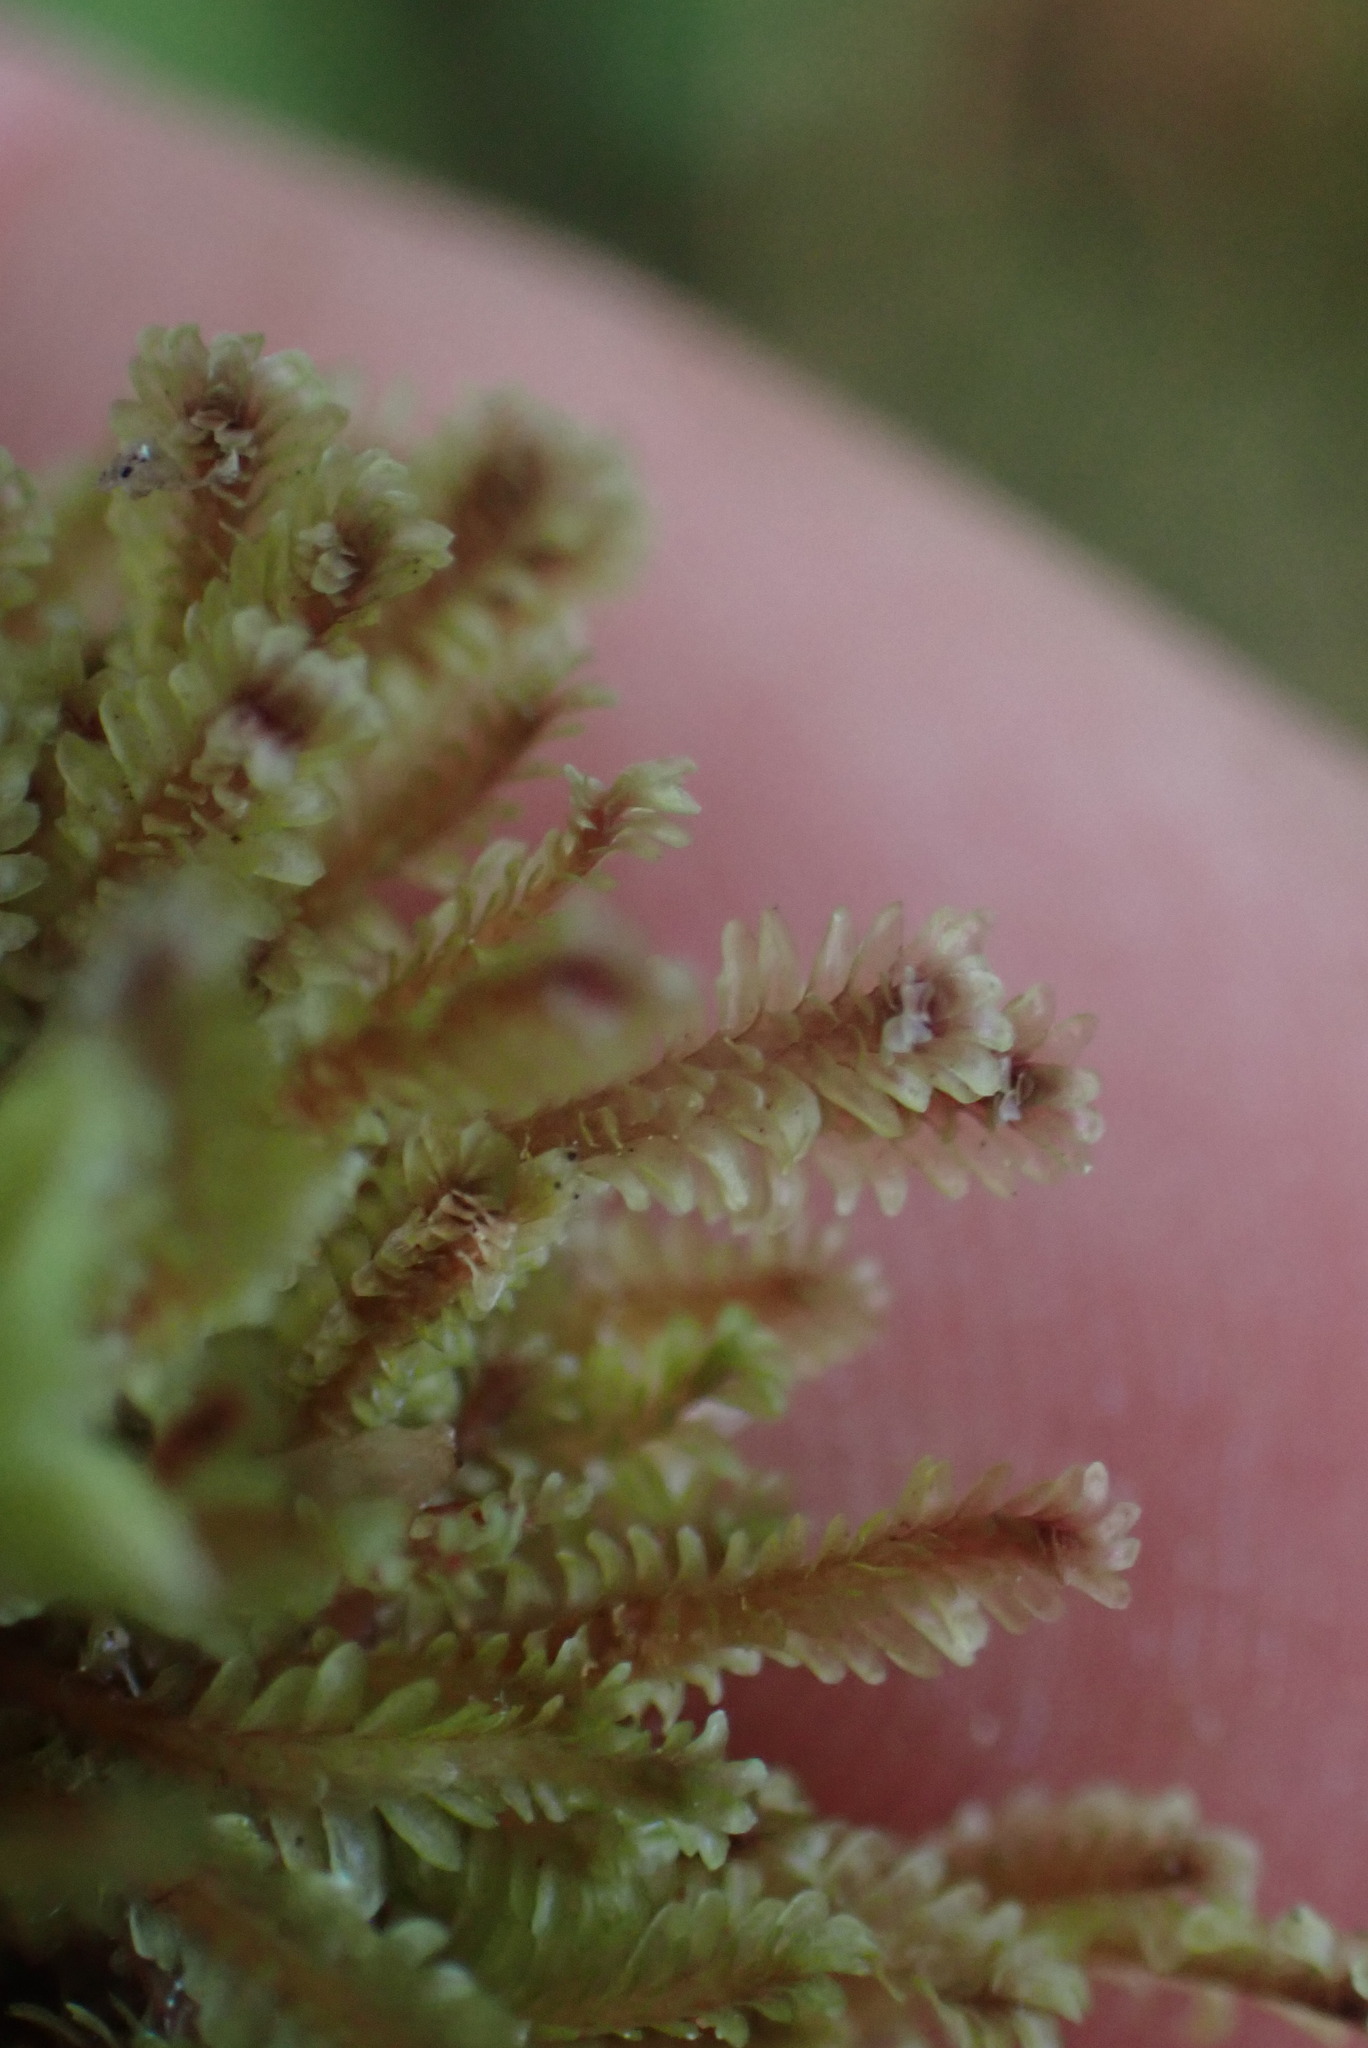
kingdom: Plantae
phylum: Marchantiophyta
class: Jungermanniopsida
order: Jungermanniales
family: Scapaniaceae
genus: Diplophyllum
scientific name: Diplophyllum albicans
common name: White earwort
